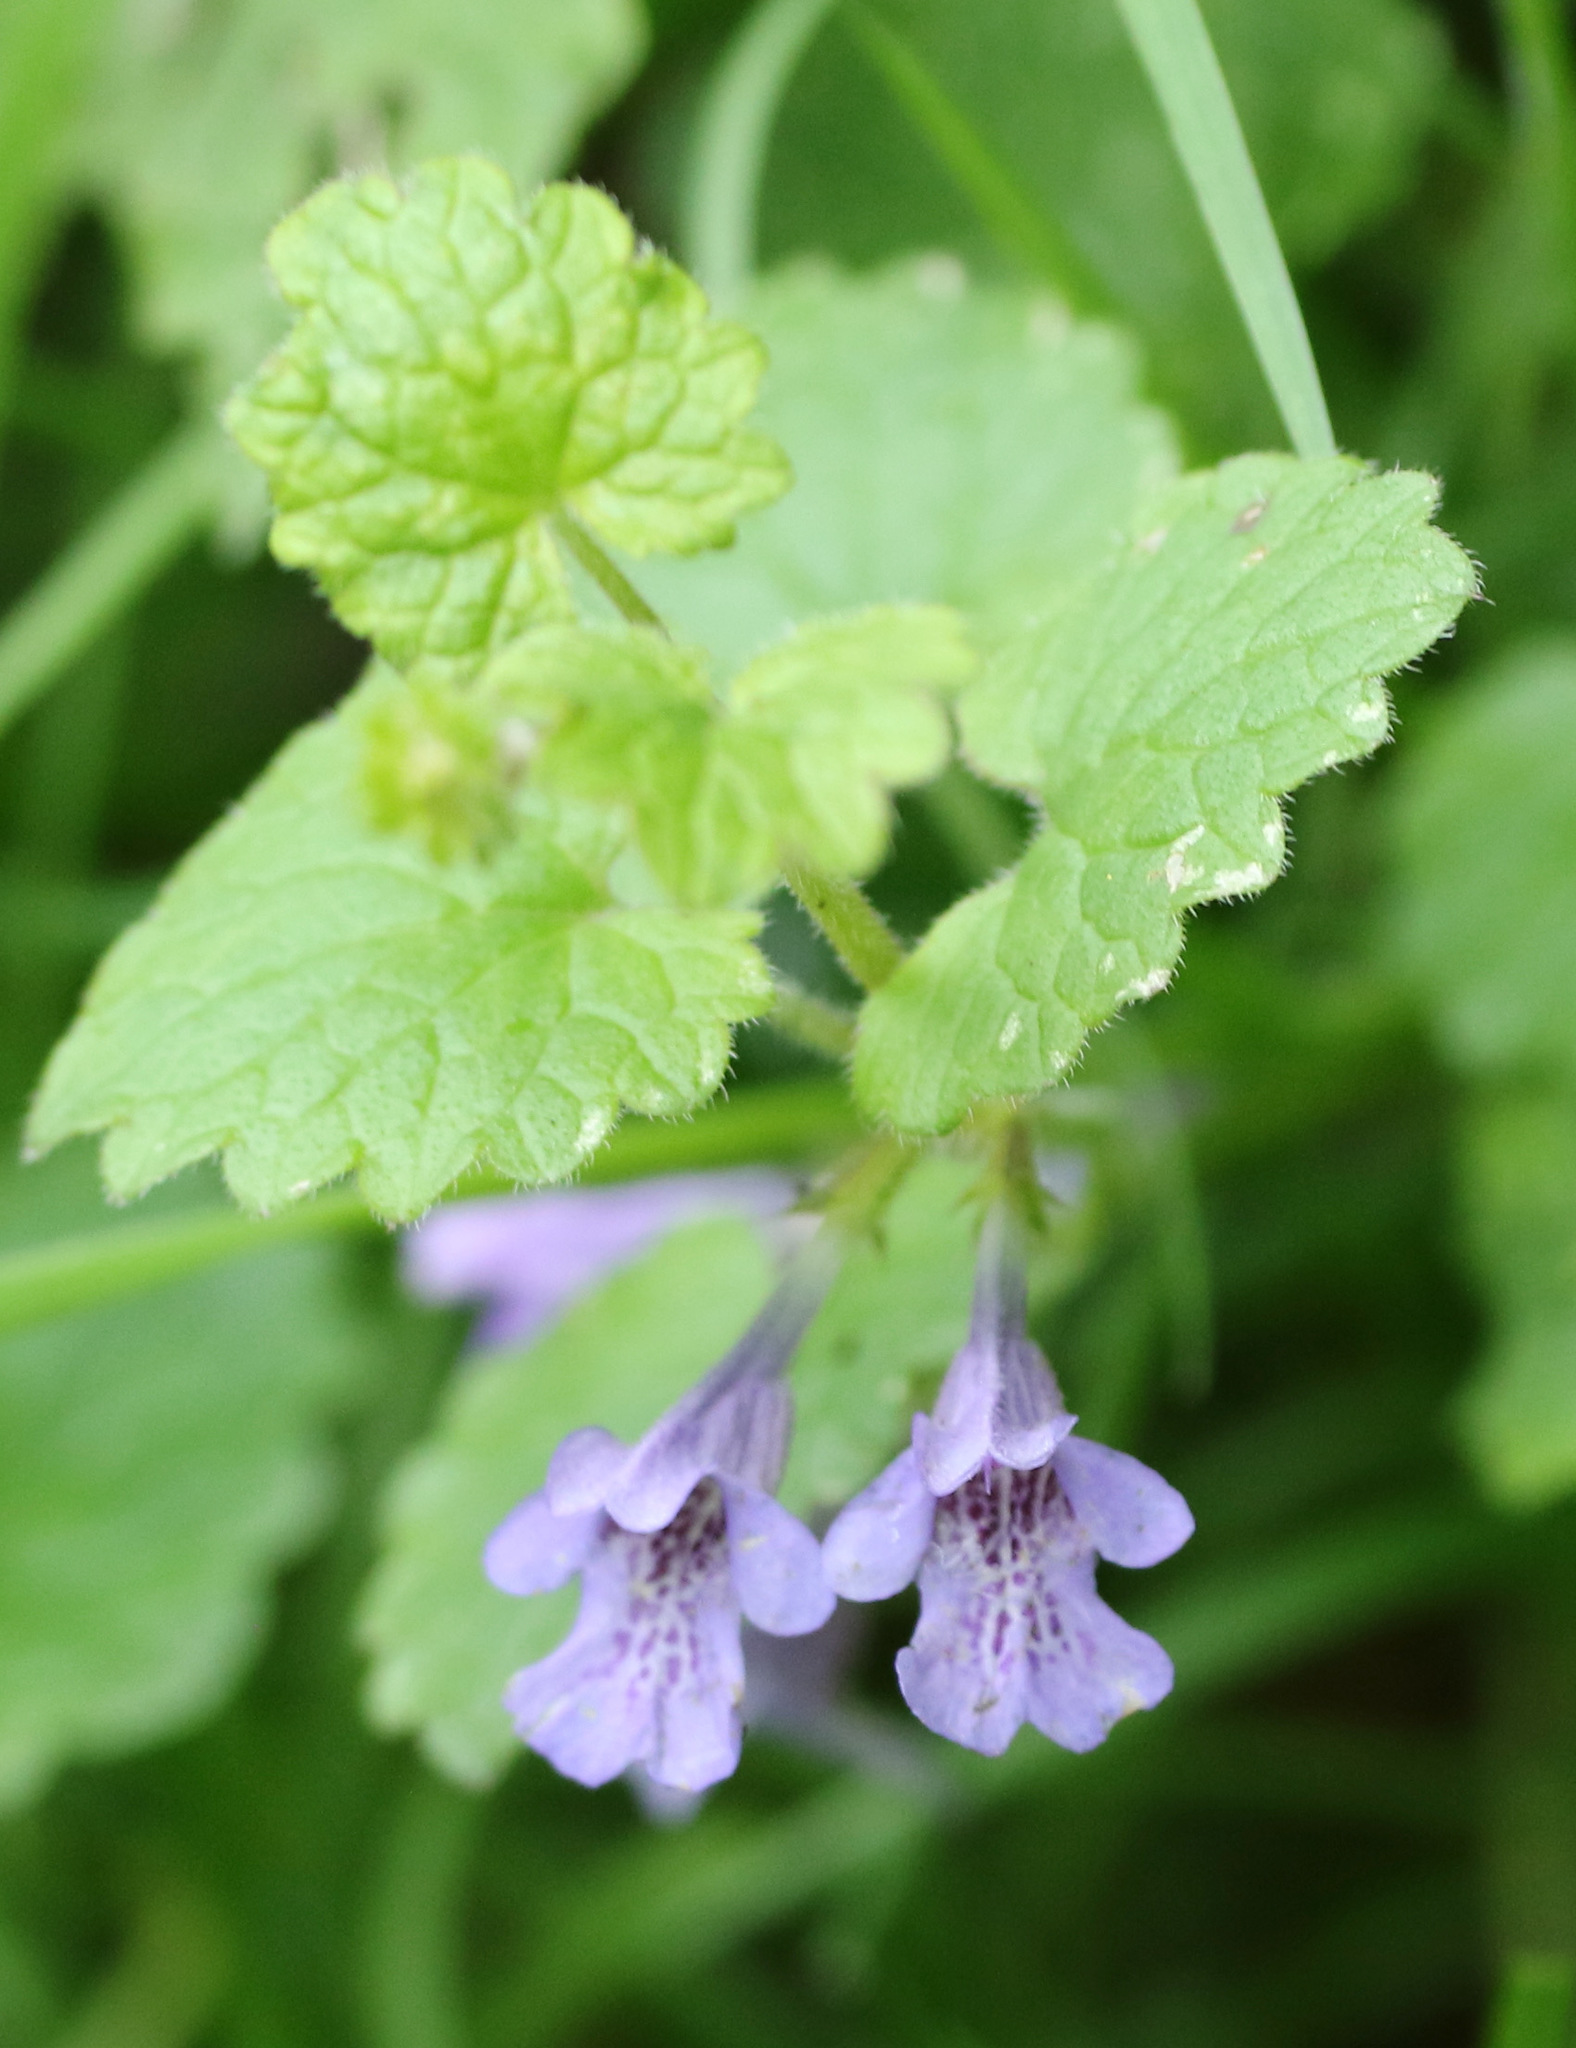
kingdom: Plantae
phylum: Tracheophyta
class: Magnoliopsida
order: Lamiales
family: Lamiaceae
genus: Glechoma
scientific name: Glechoma hederacea
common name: Ground ivy
